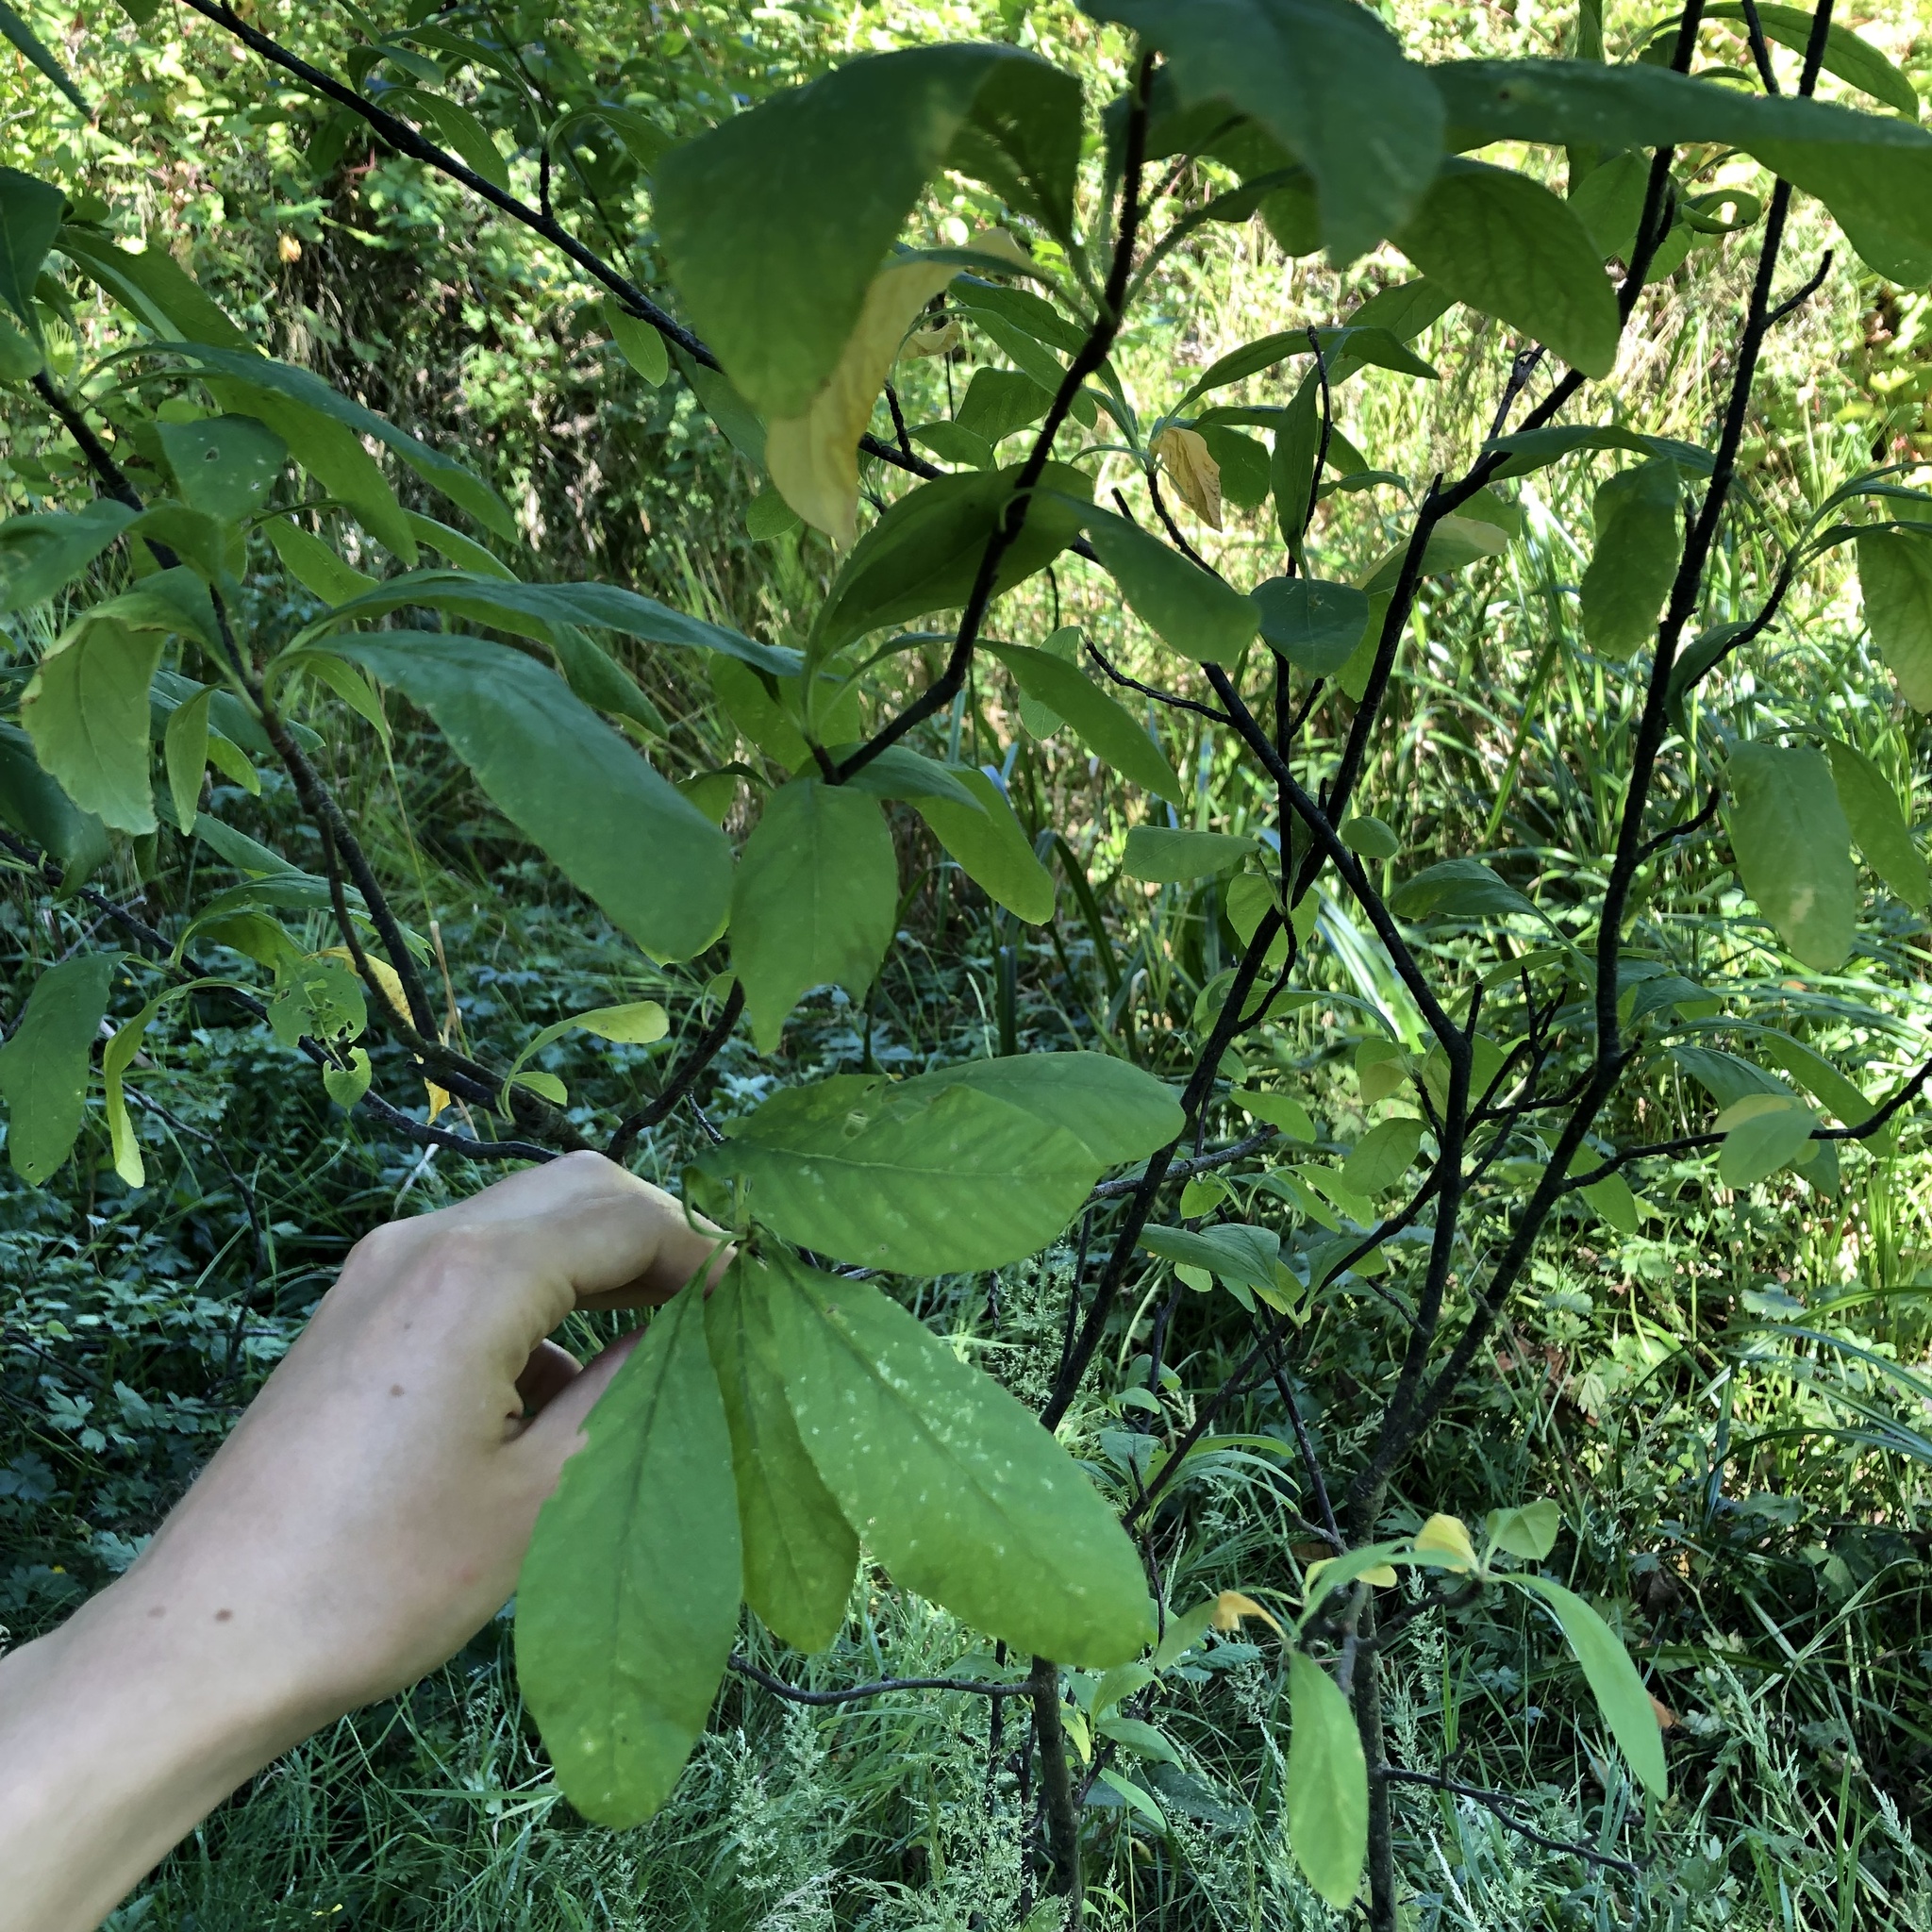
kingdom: Plantae
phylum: Tracheophyta
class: Magnoliopsida
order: Rosales
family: Rosaceae
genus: Oemleria
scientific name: Oemleria cerasiformis
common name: Osoberry
